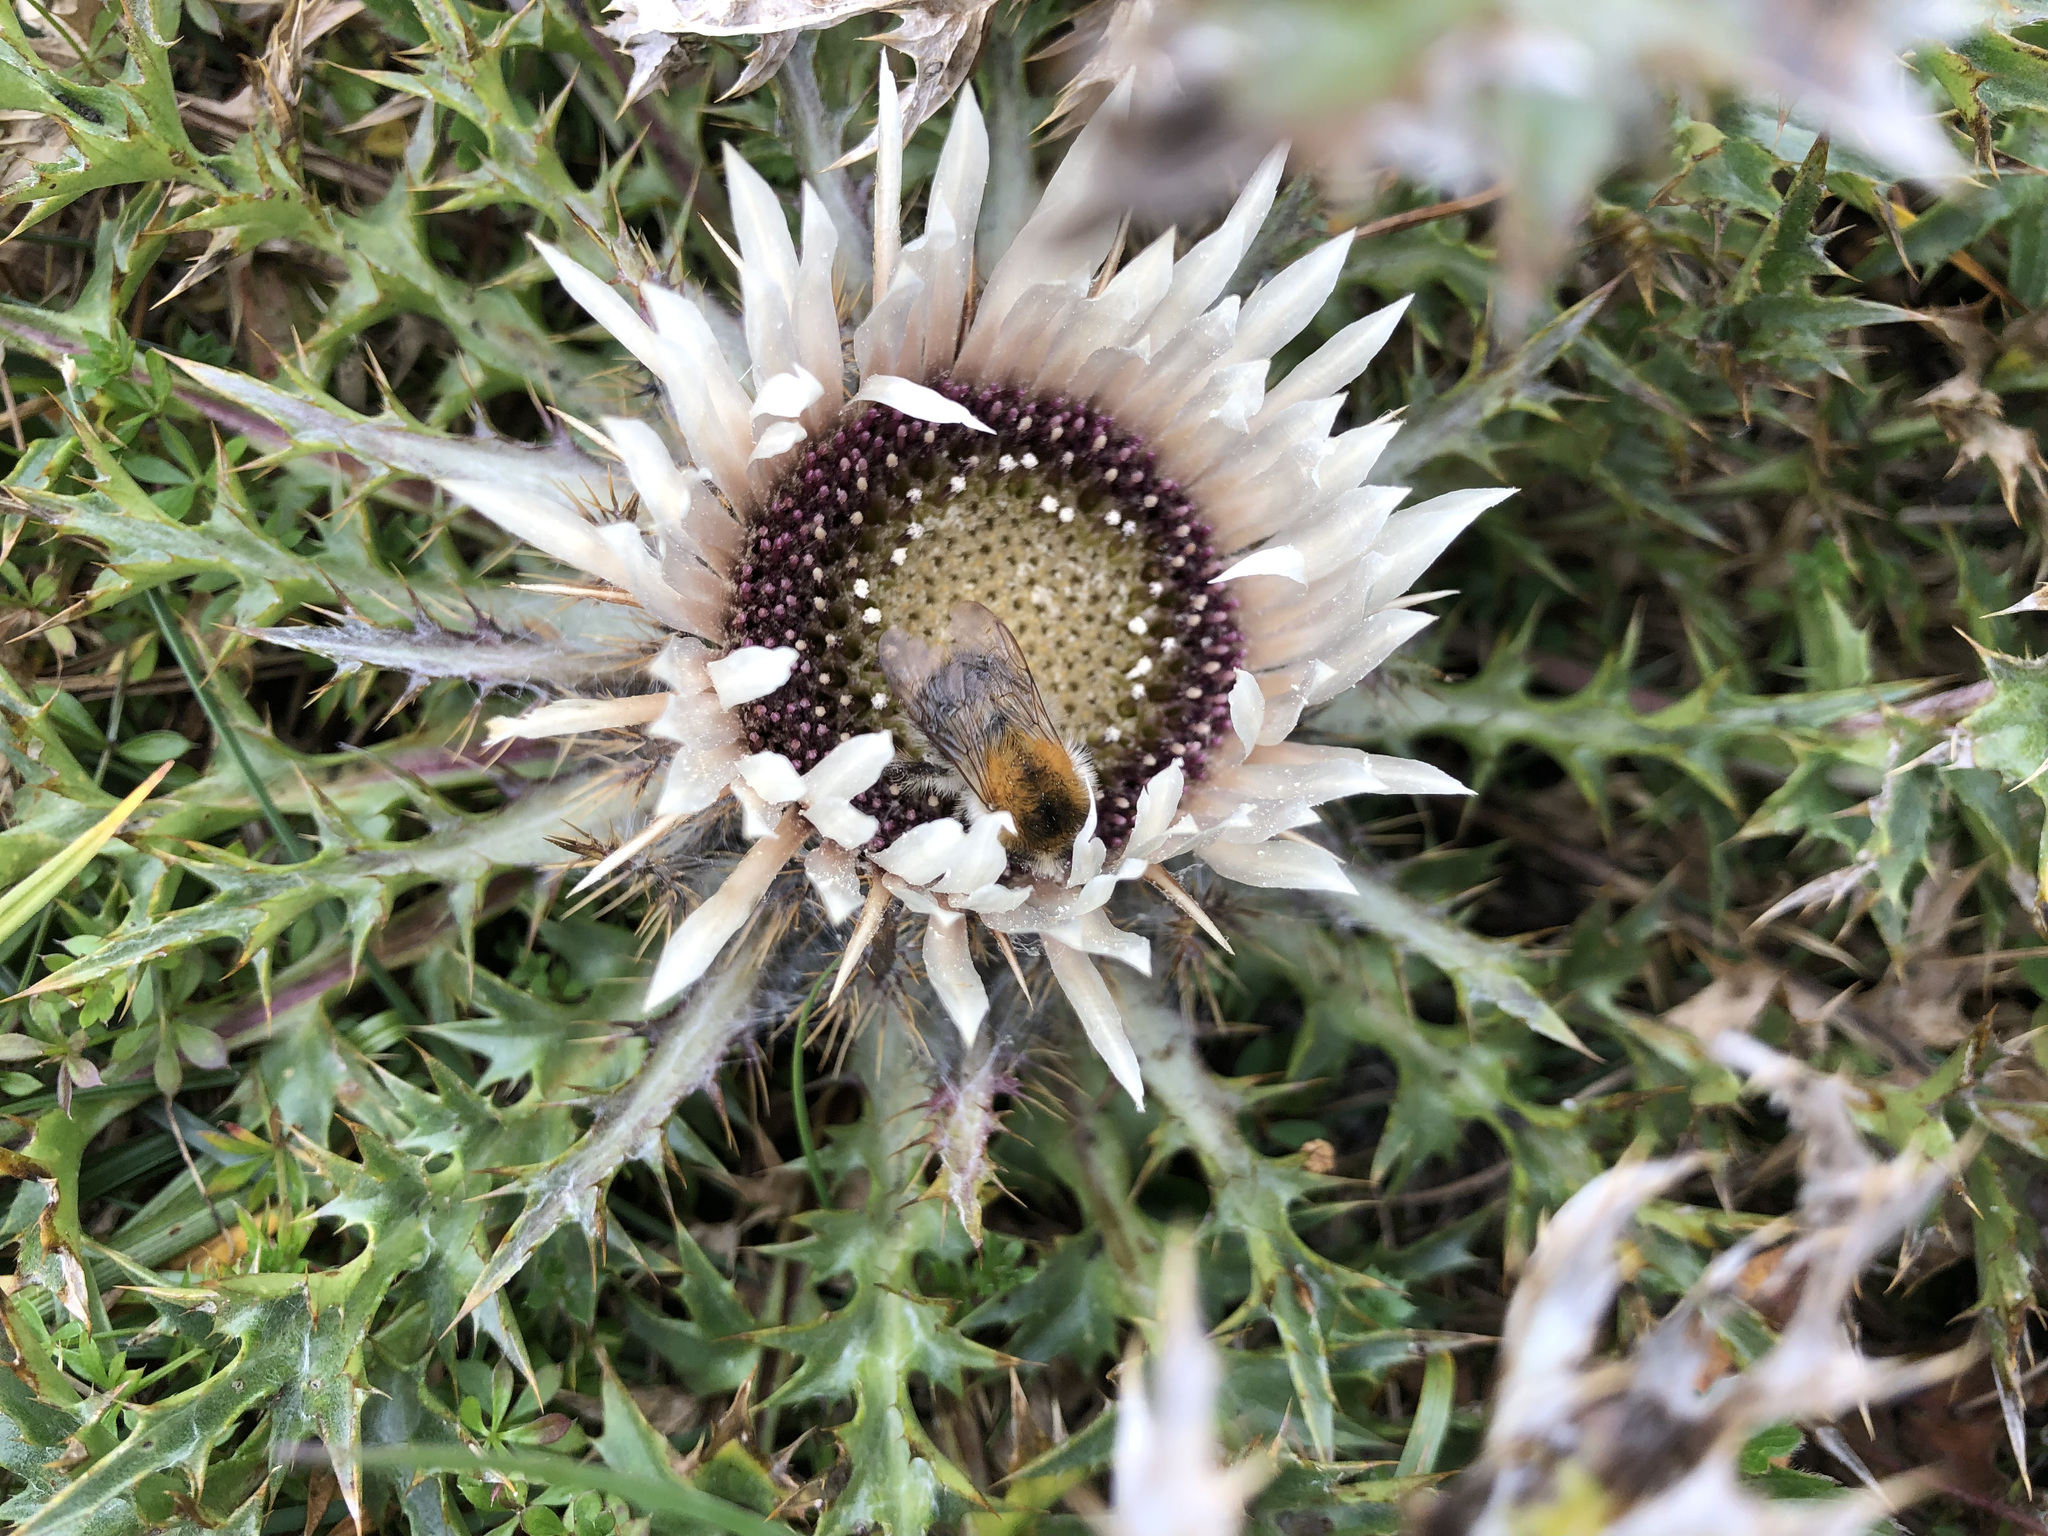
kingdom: Plantae
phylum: Tracheophyta
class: Magnoliopsida
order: Asterales
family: Asteraceae
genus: Carlina
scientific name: Carlina acaulis
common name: Stemless carline thistle
